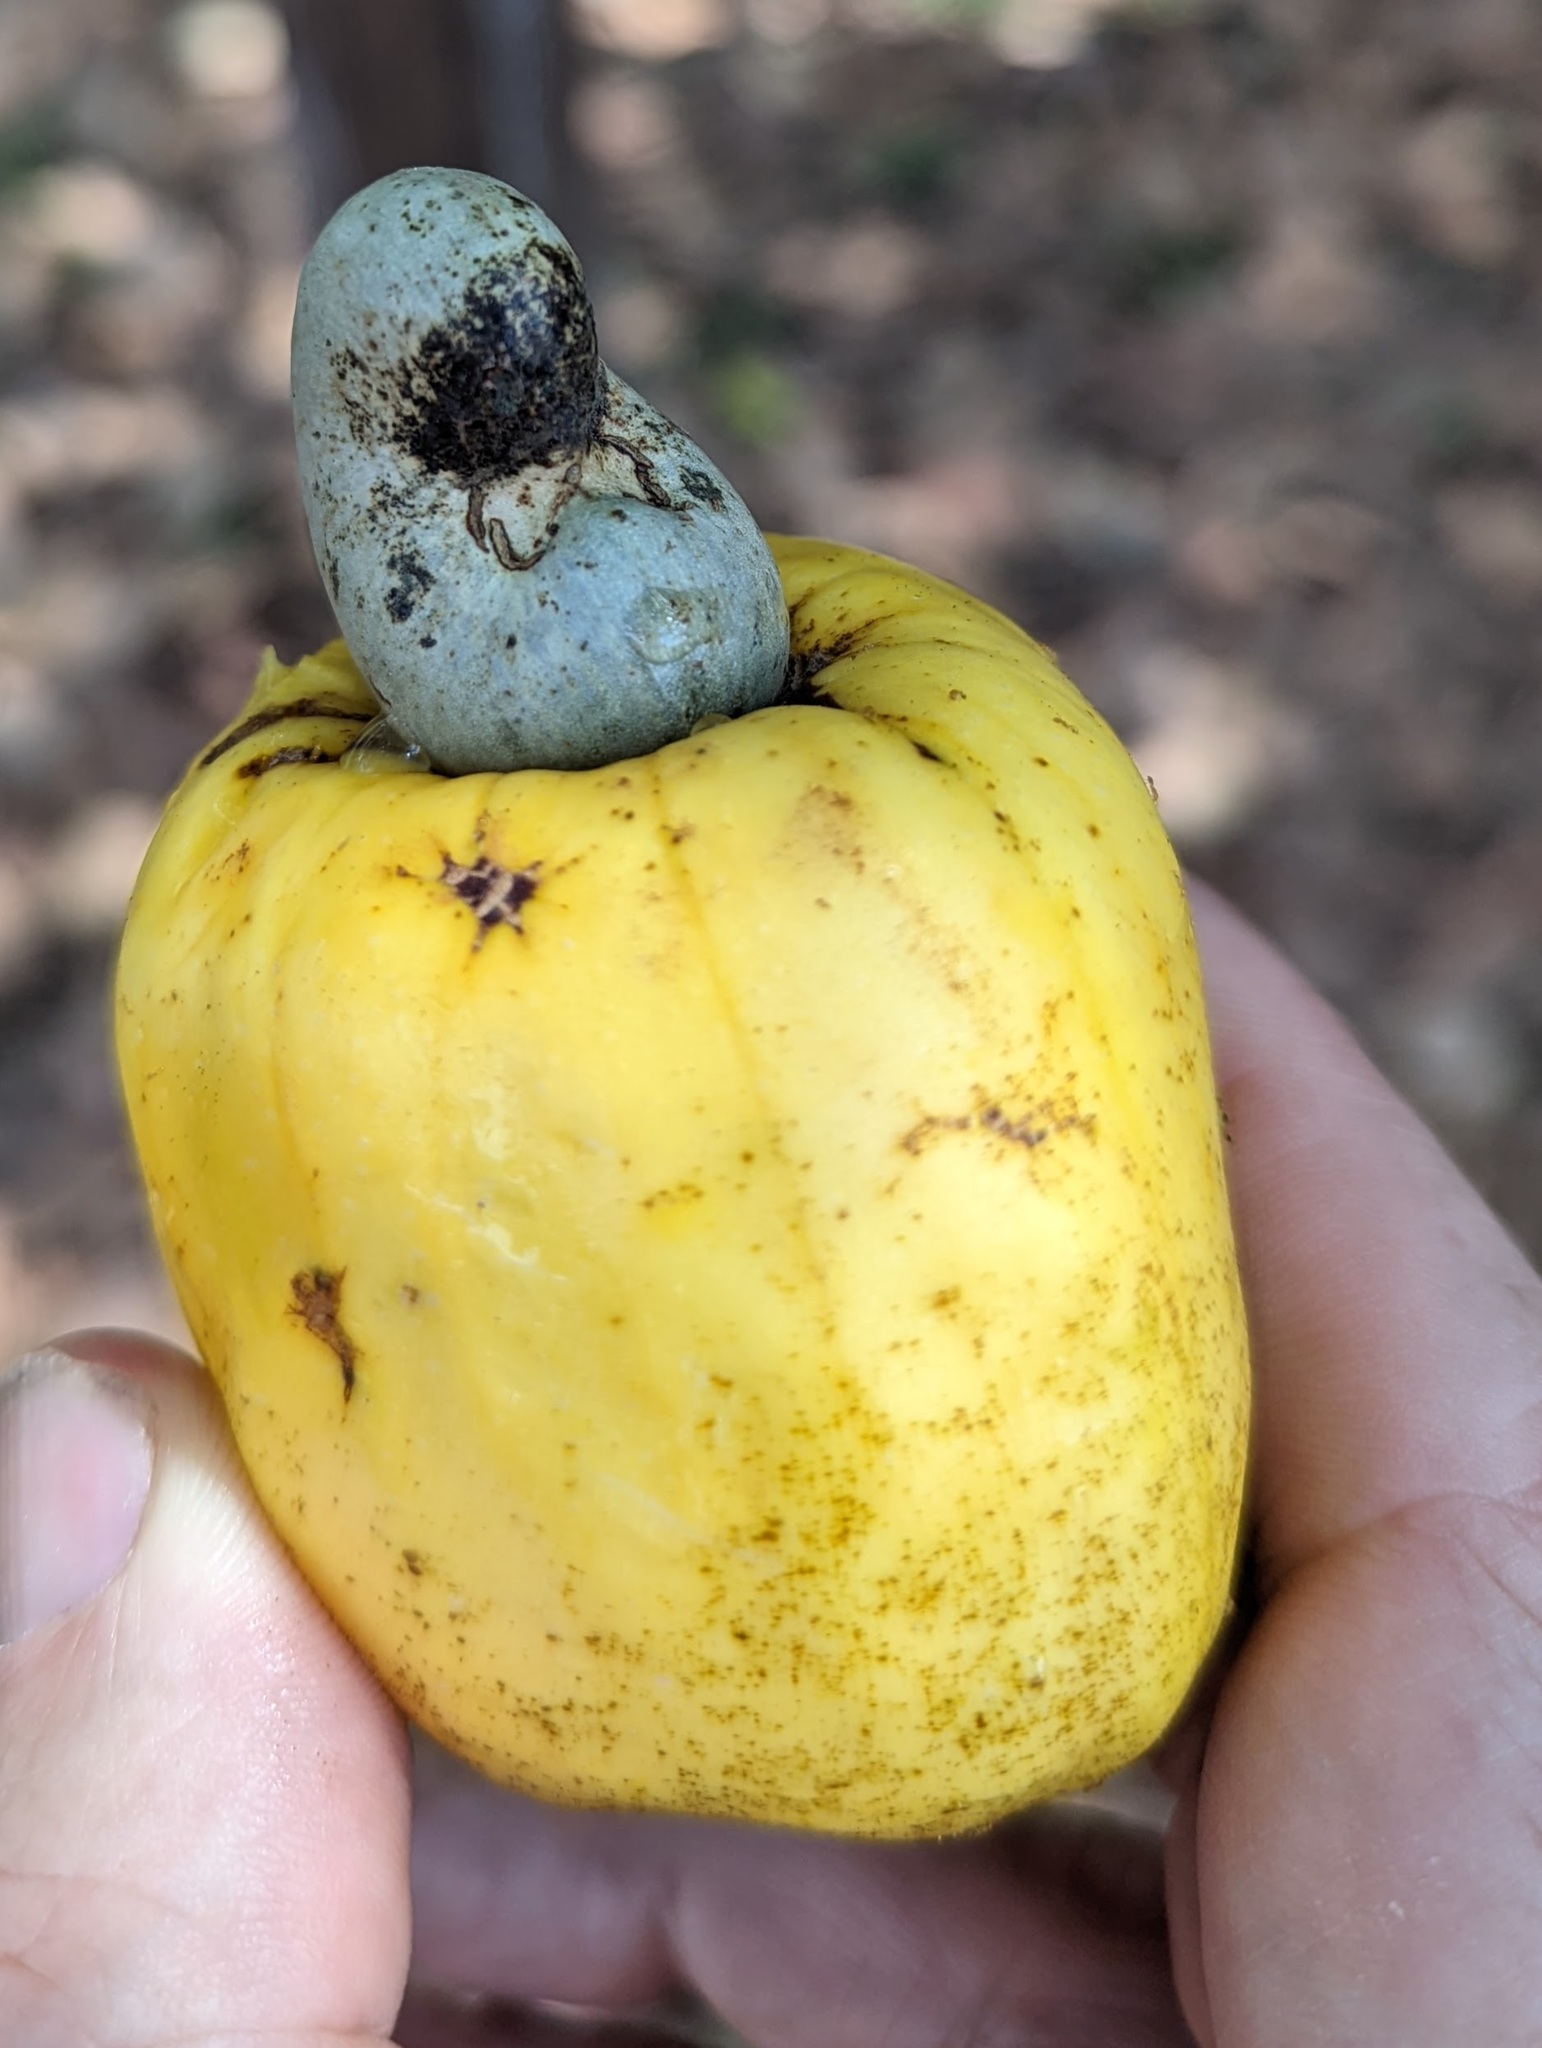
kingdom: Plantae
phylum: Tracheophyta
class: Magnoliopsida
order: Sapindales
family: Anacardiaceae
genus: Anacardium
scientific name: Anacardium occidentale
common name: Cashew
